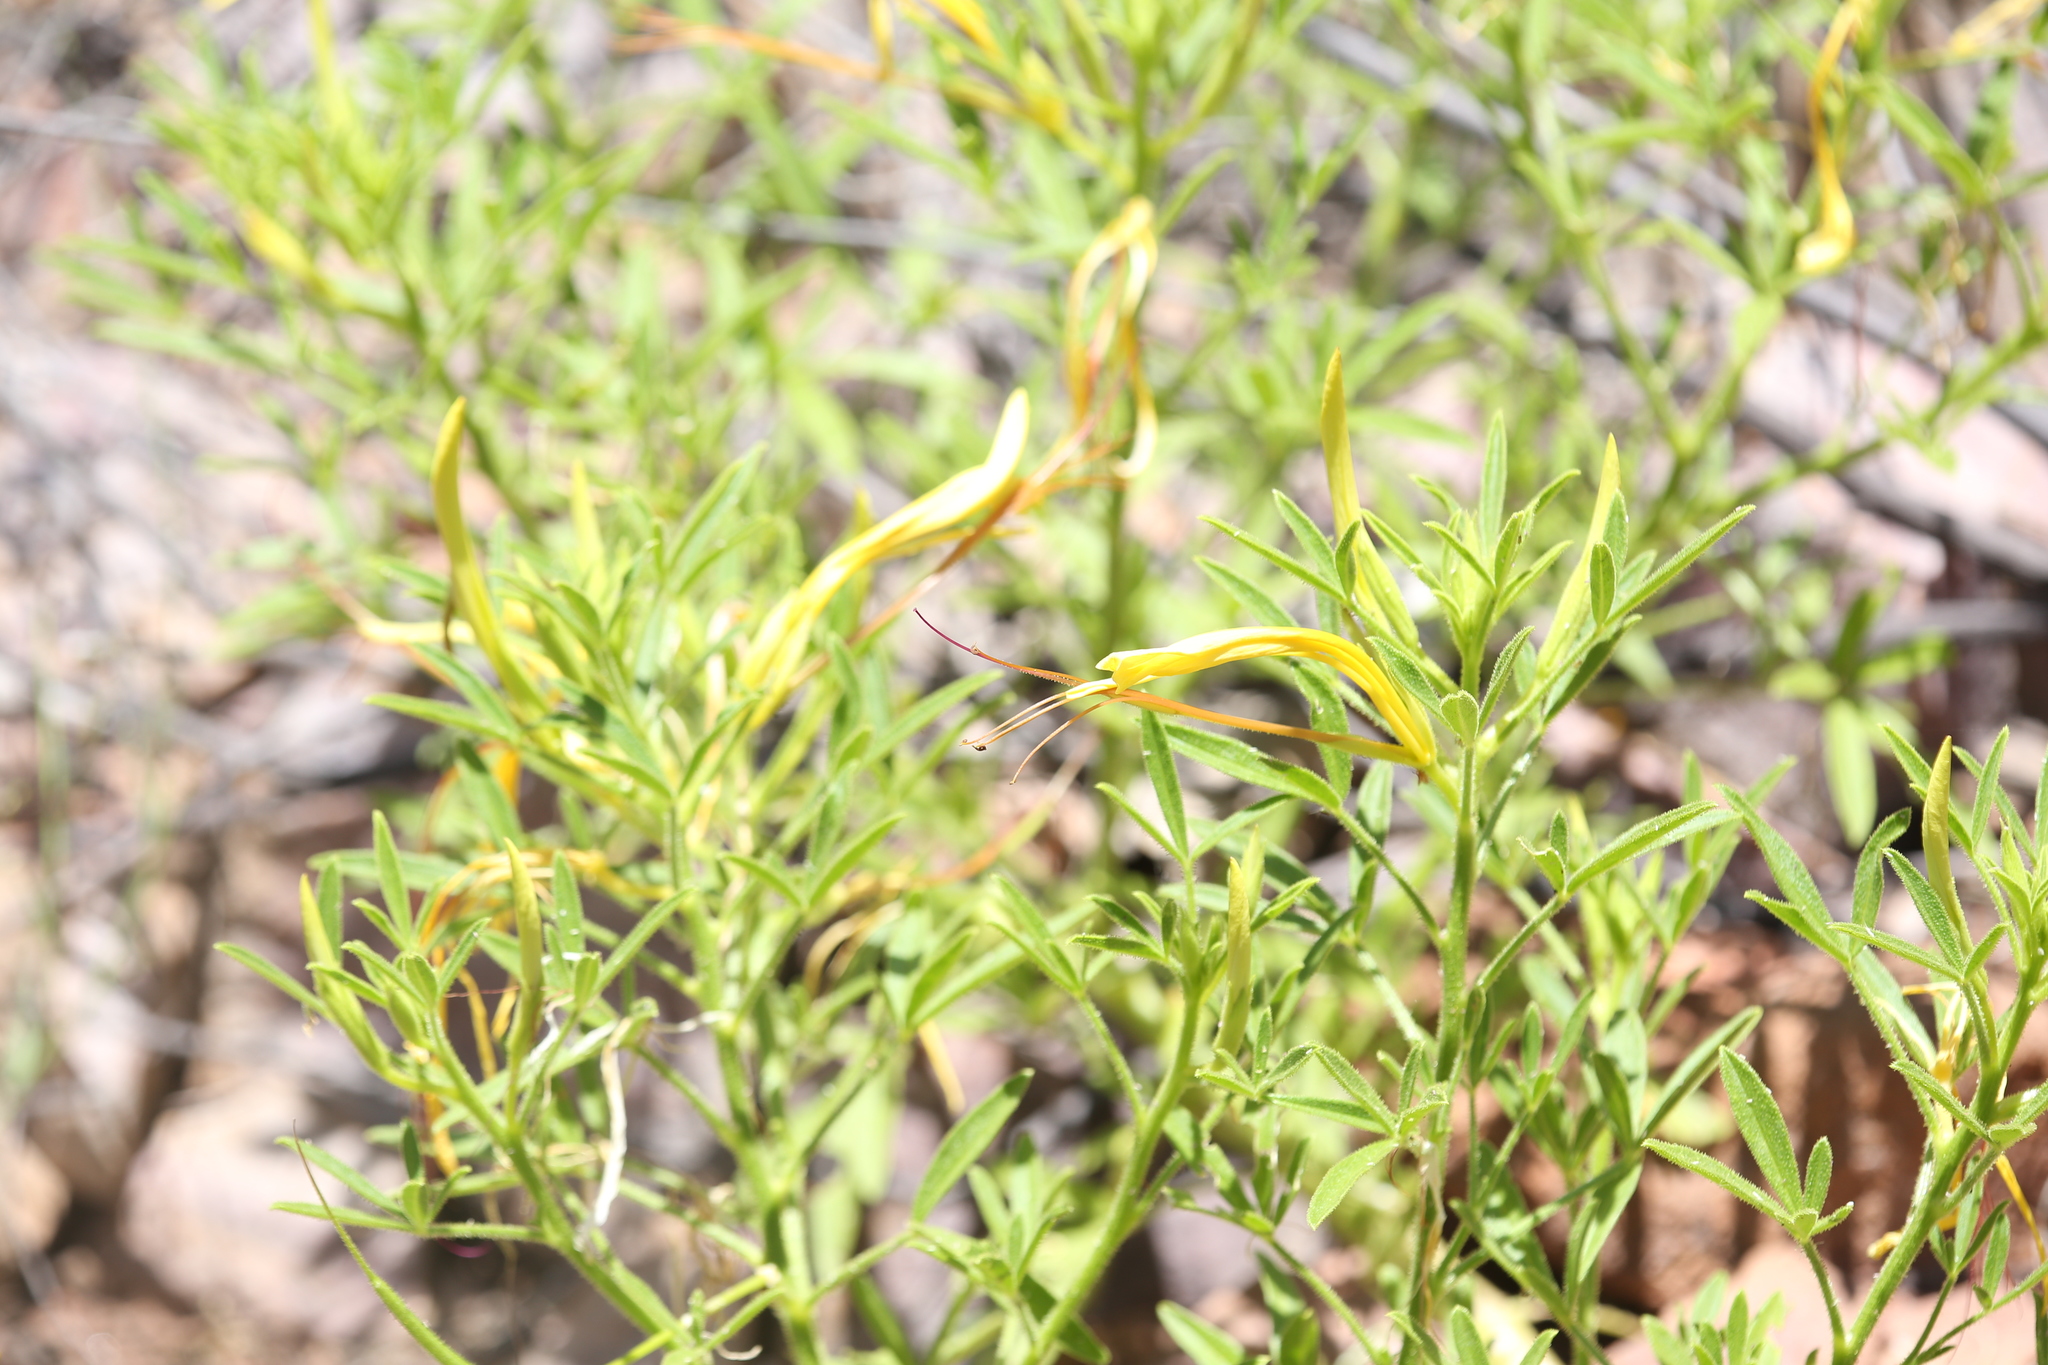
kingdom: Plantae
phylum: Tracheophyta
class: Magnoliopsida
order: Brassicales
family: Cleomaceae
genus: Arivela
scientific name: Arivela cleomoides
